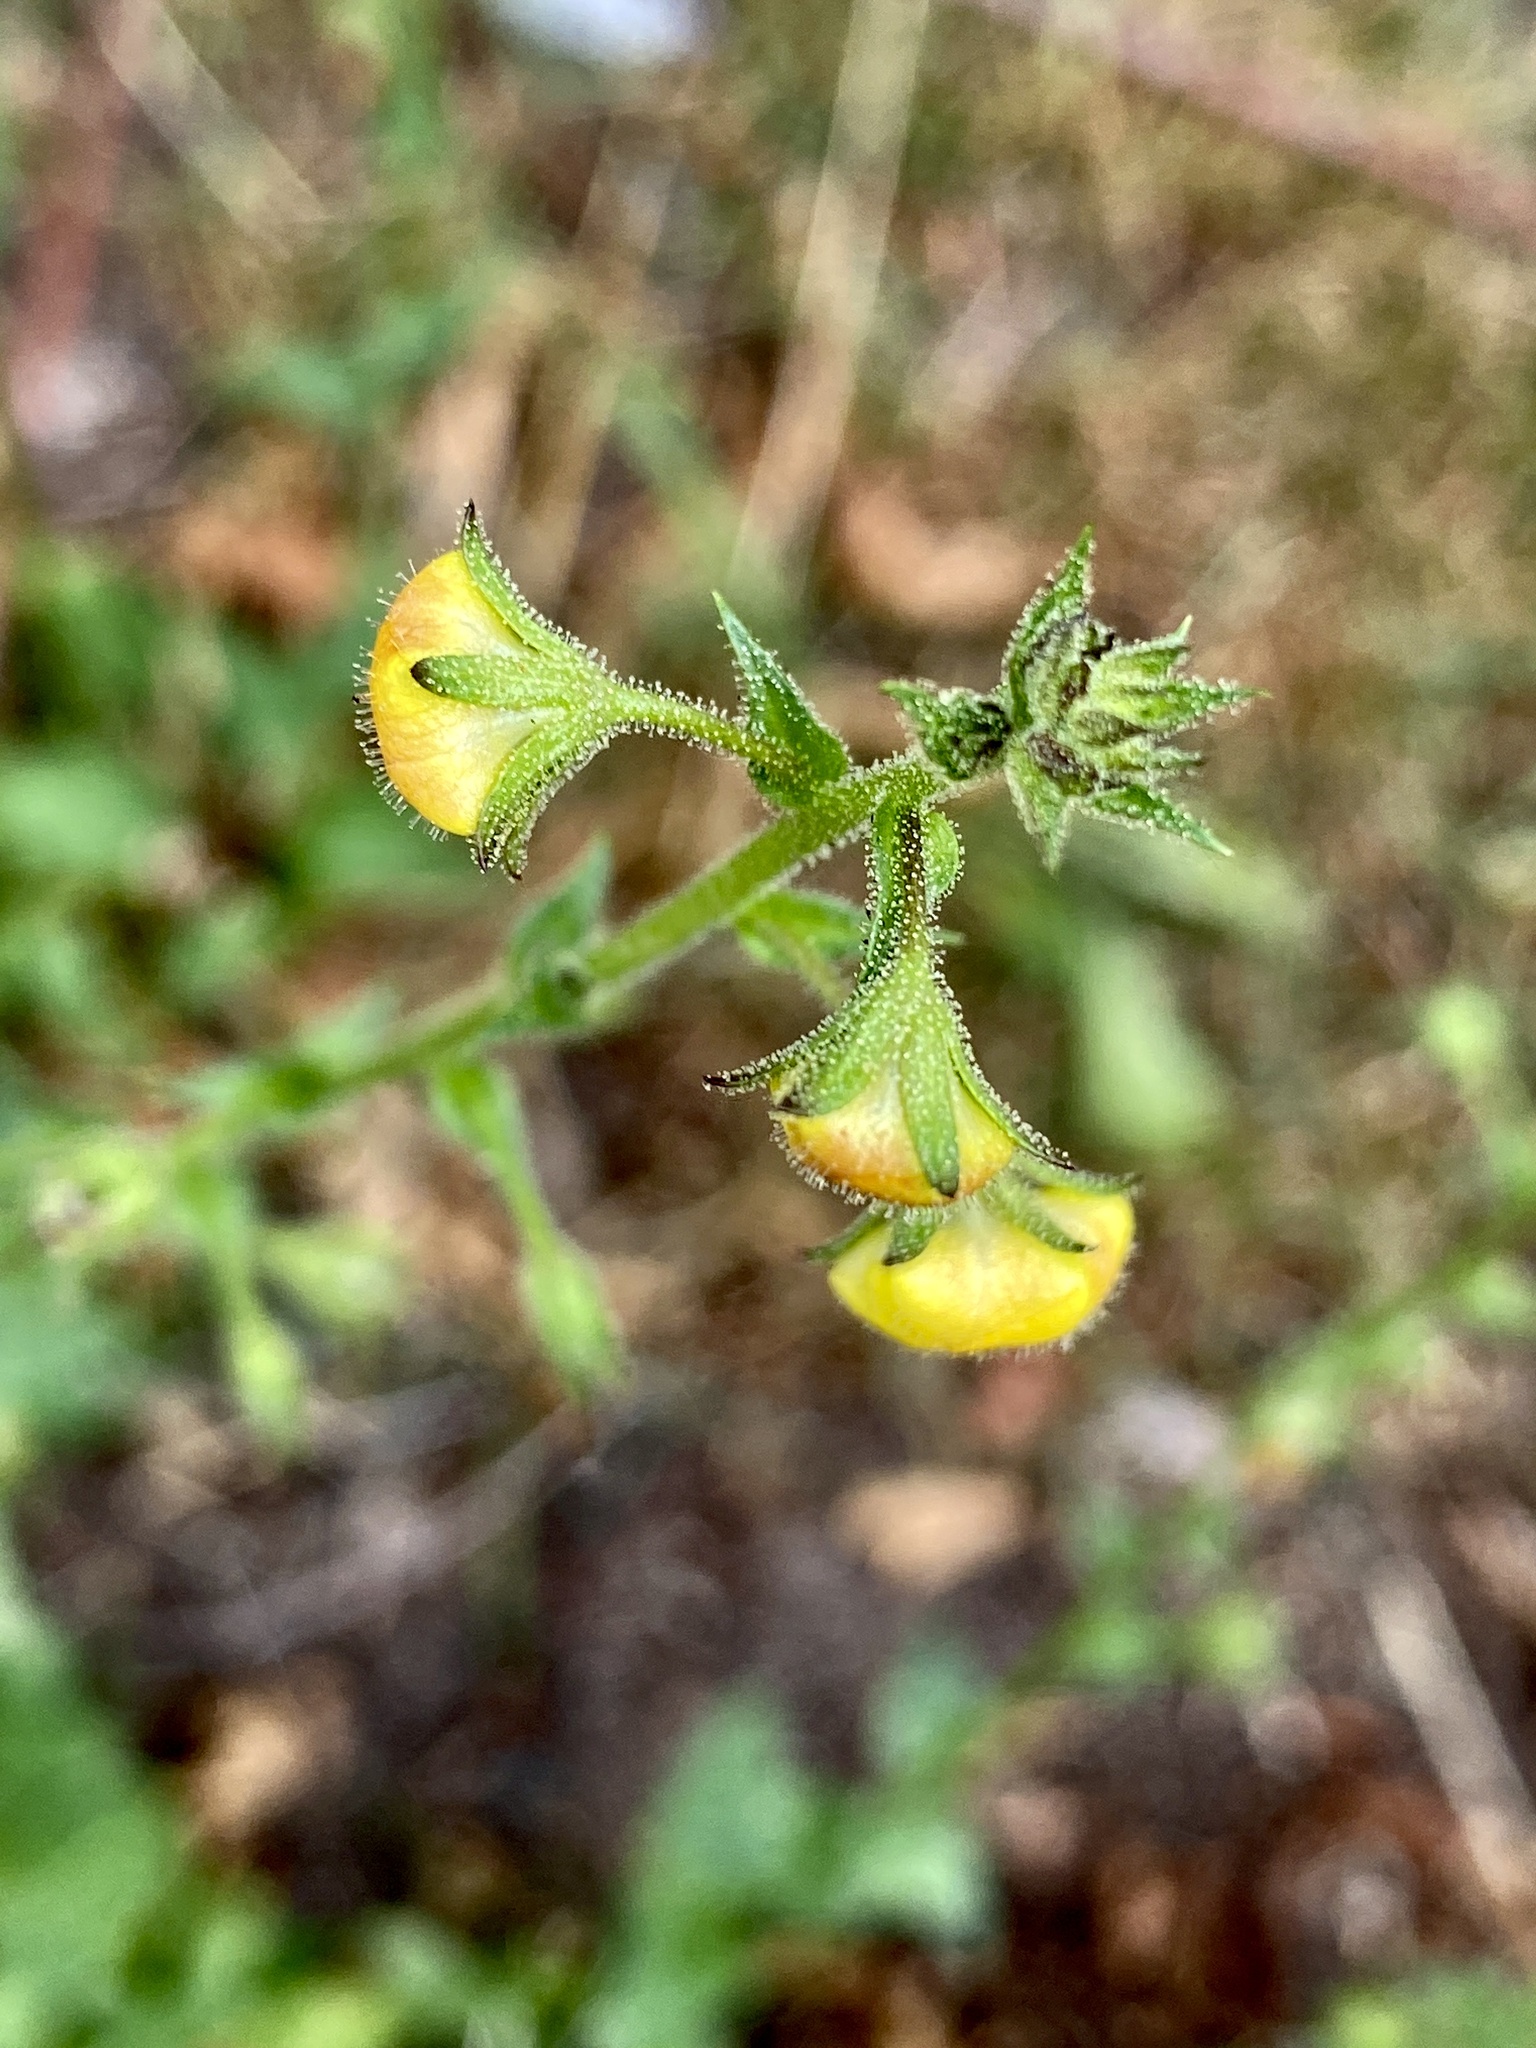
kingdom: Plantae
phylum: Tracheophyta
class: Magnoliopsida
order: Lamiales
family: Scrophulariaceae
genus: Verbascum
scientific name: Verbascum blattaria
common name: Moth mullein
